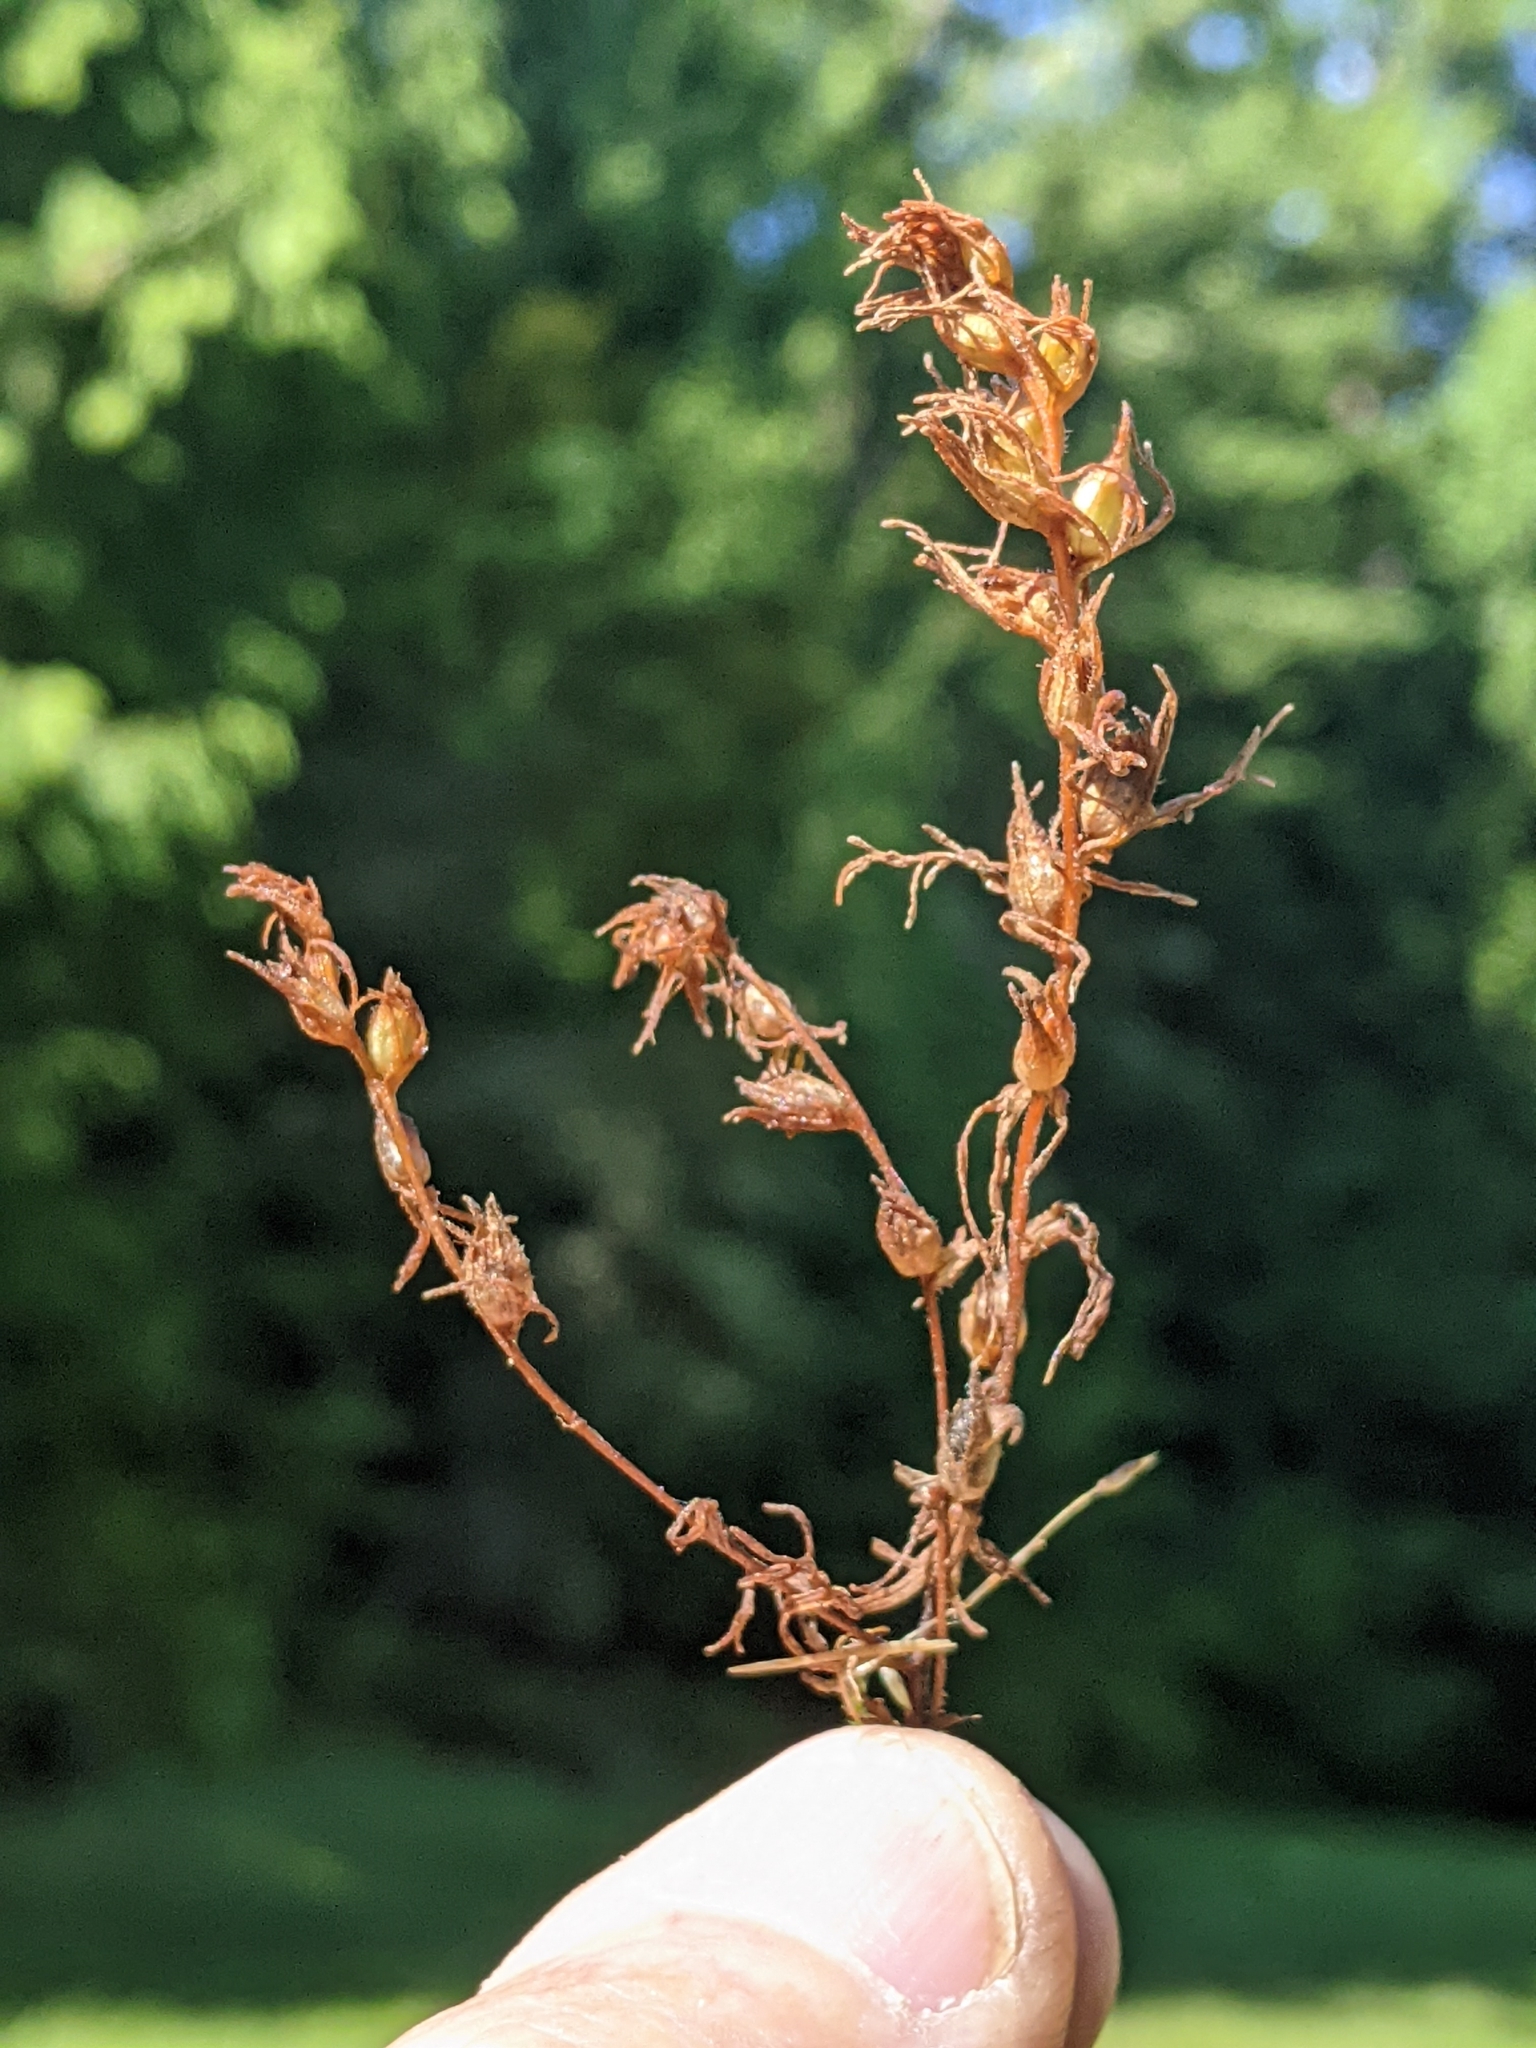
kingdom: Plantae
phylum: Tracheophyta
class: Magnoliopsida
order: Lamiales
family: Orobanchaceae
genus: Triphysaria
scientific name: Triphysaria pusilla
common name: Dwarf false owl-clover
